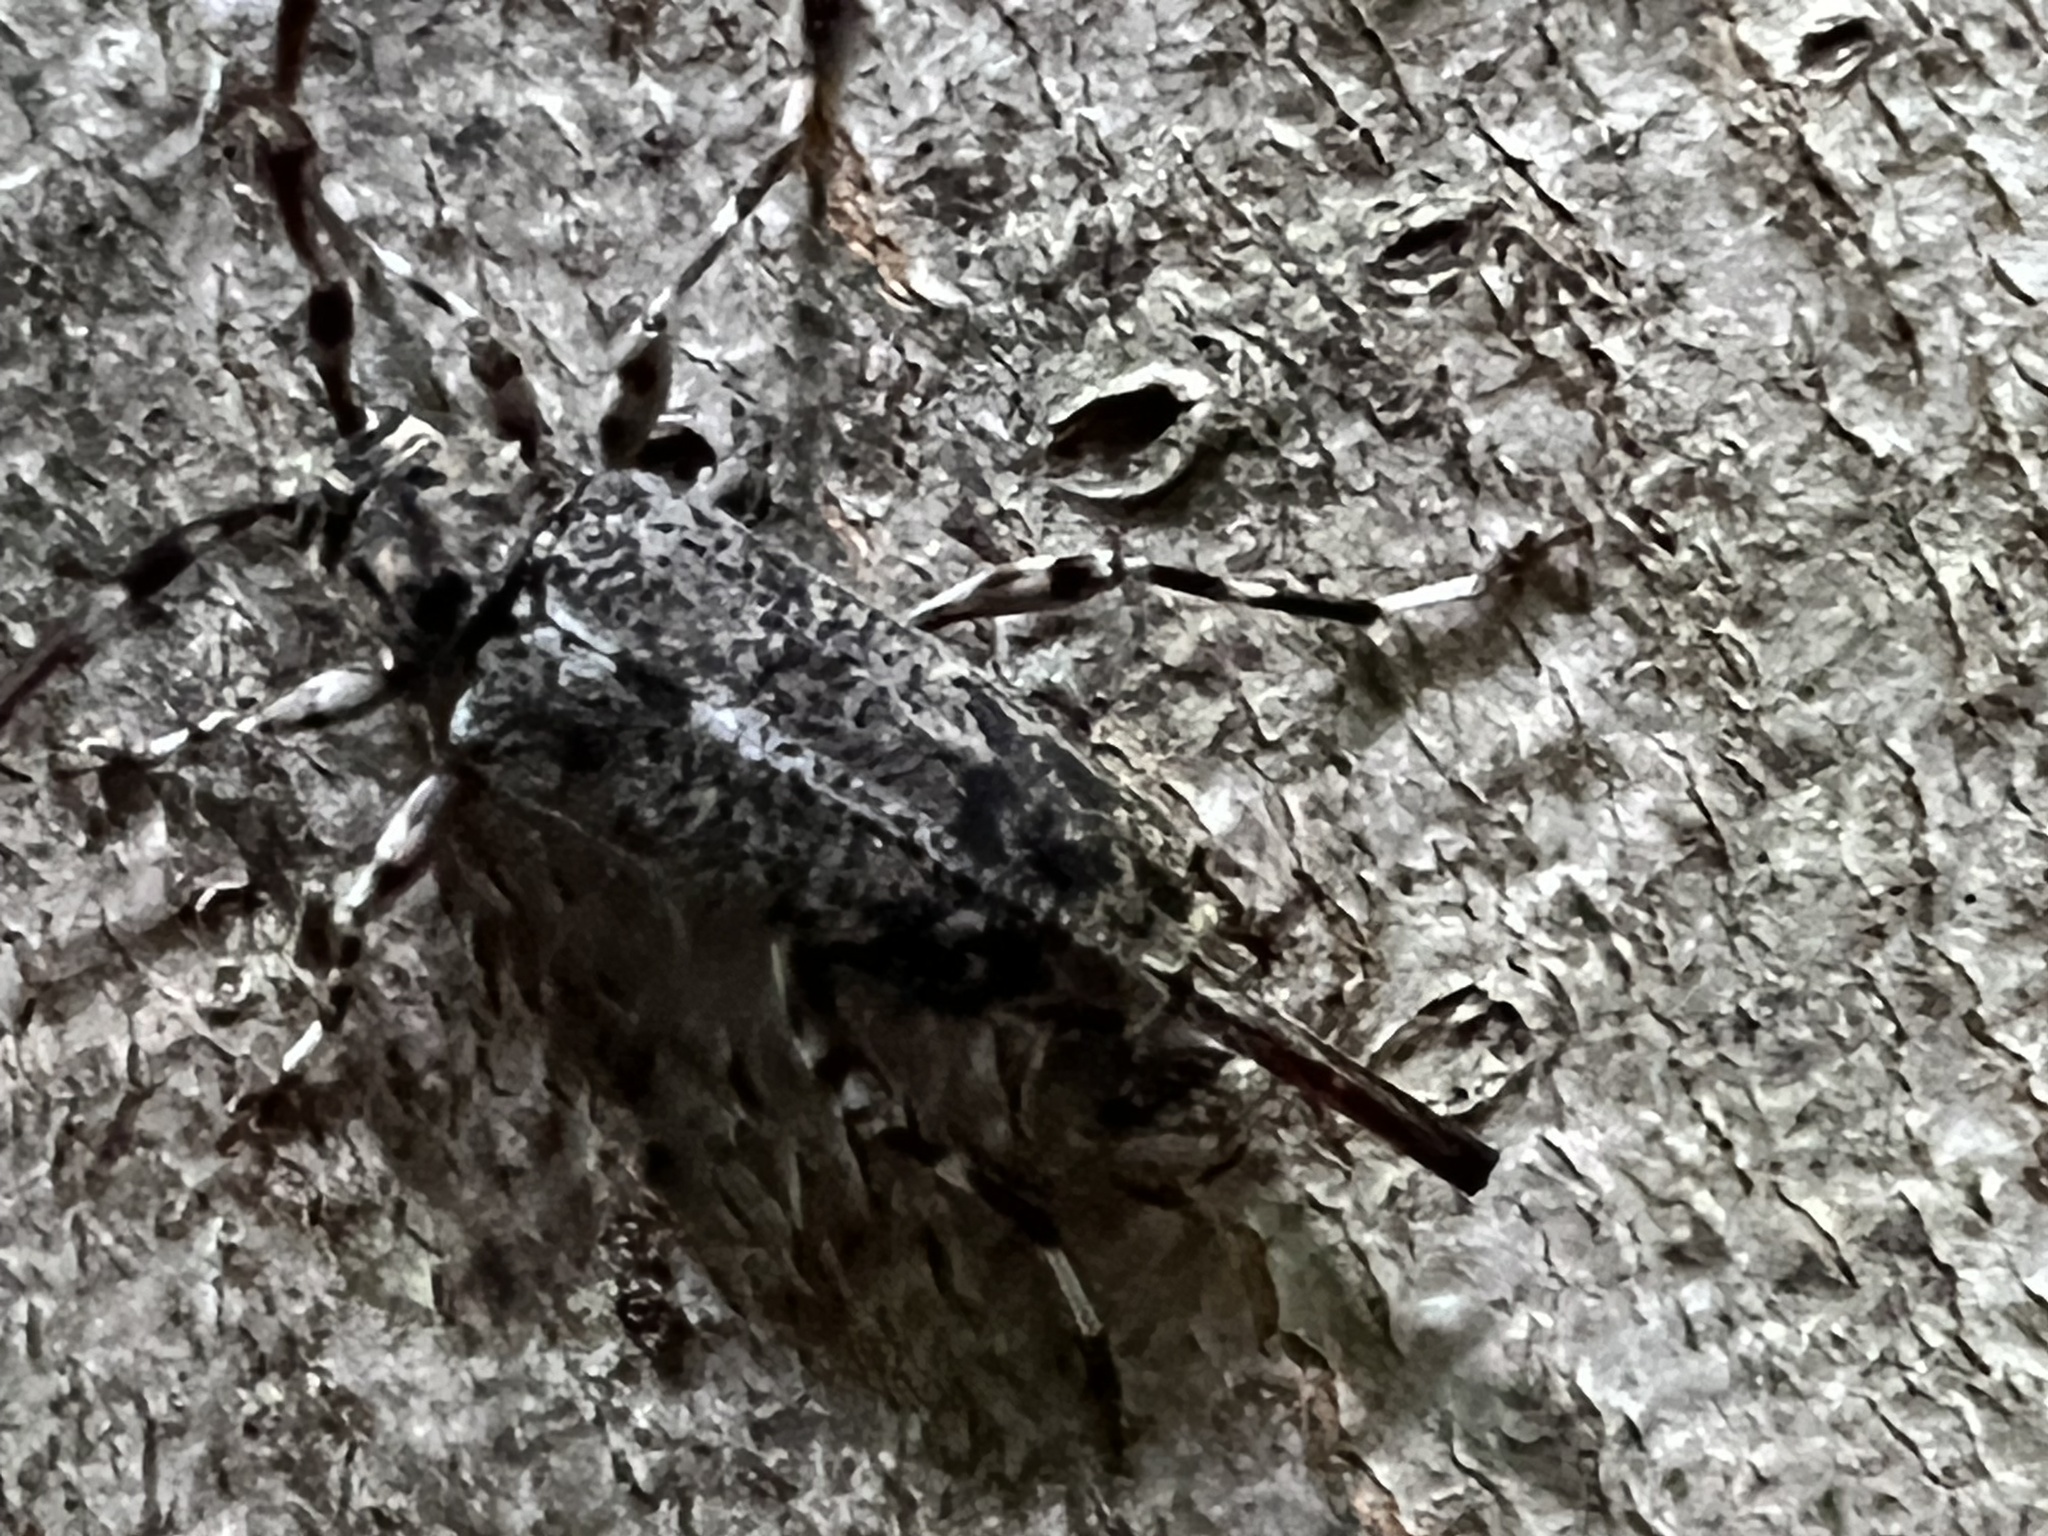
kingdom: Animalia
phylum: Arthropoda
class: Insecta
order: Coleoptera
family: Cerambycidae
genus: Graphisurus
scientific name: Graphisurus despectus
